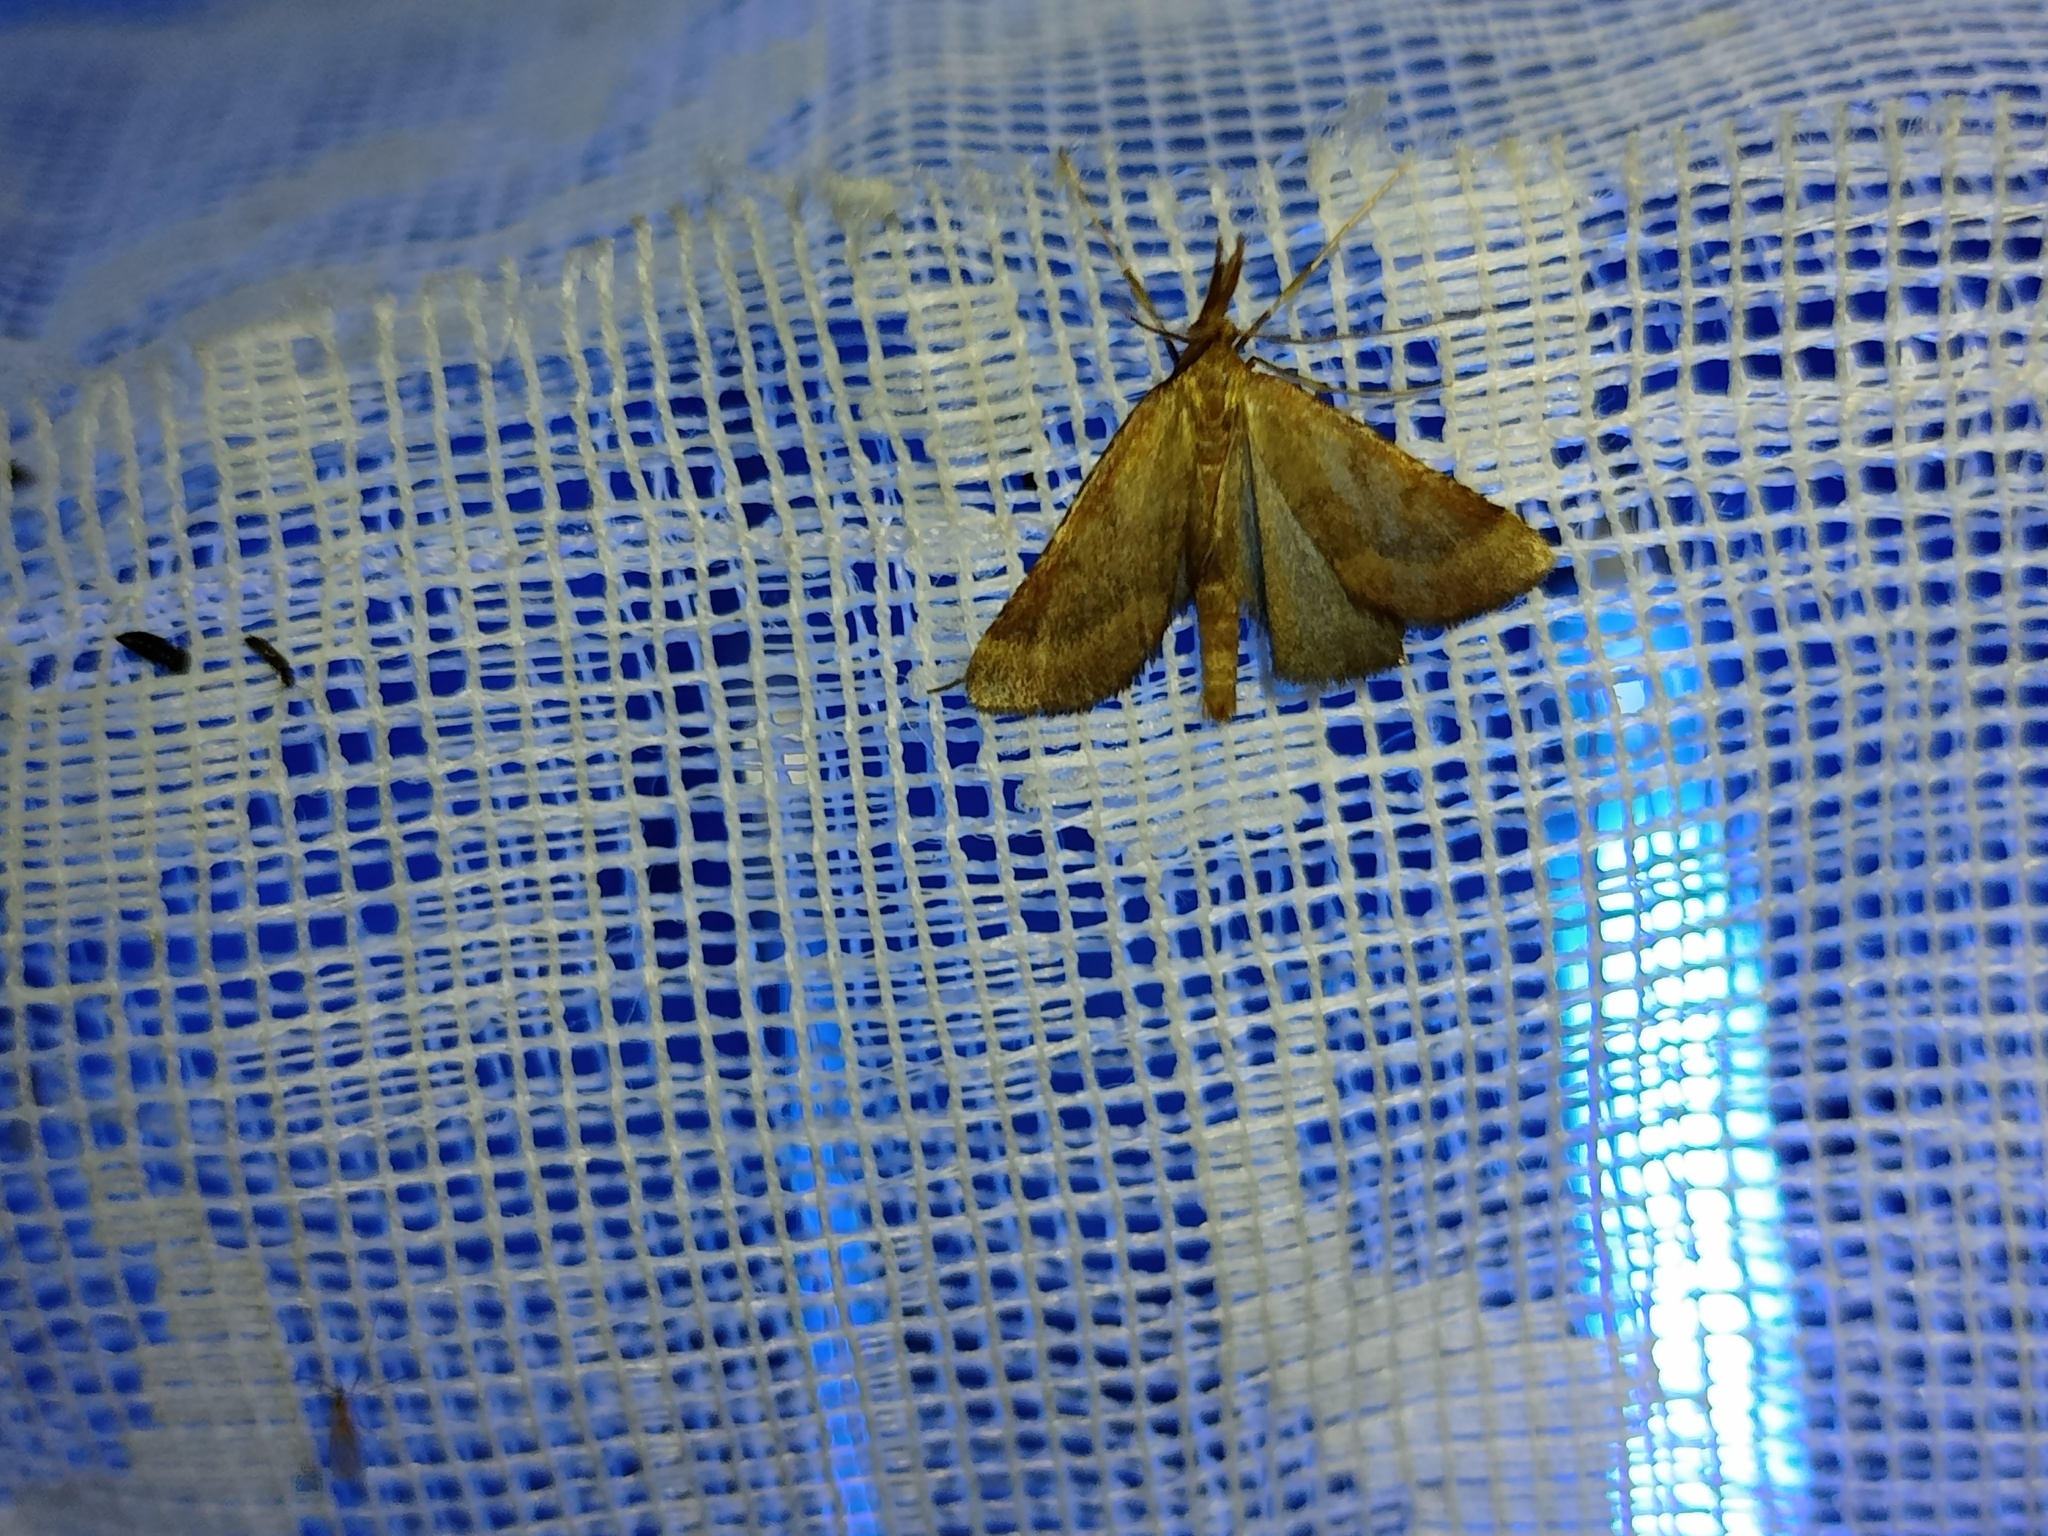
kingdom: Animalia
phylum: Arthropoda
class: Insecta
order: Lepidoptera
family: Pyralidae
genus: Synaphe
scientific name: Synaphe punctalis
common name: Long-legged tabby
